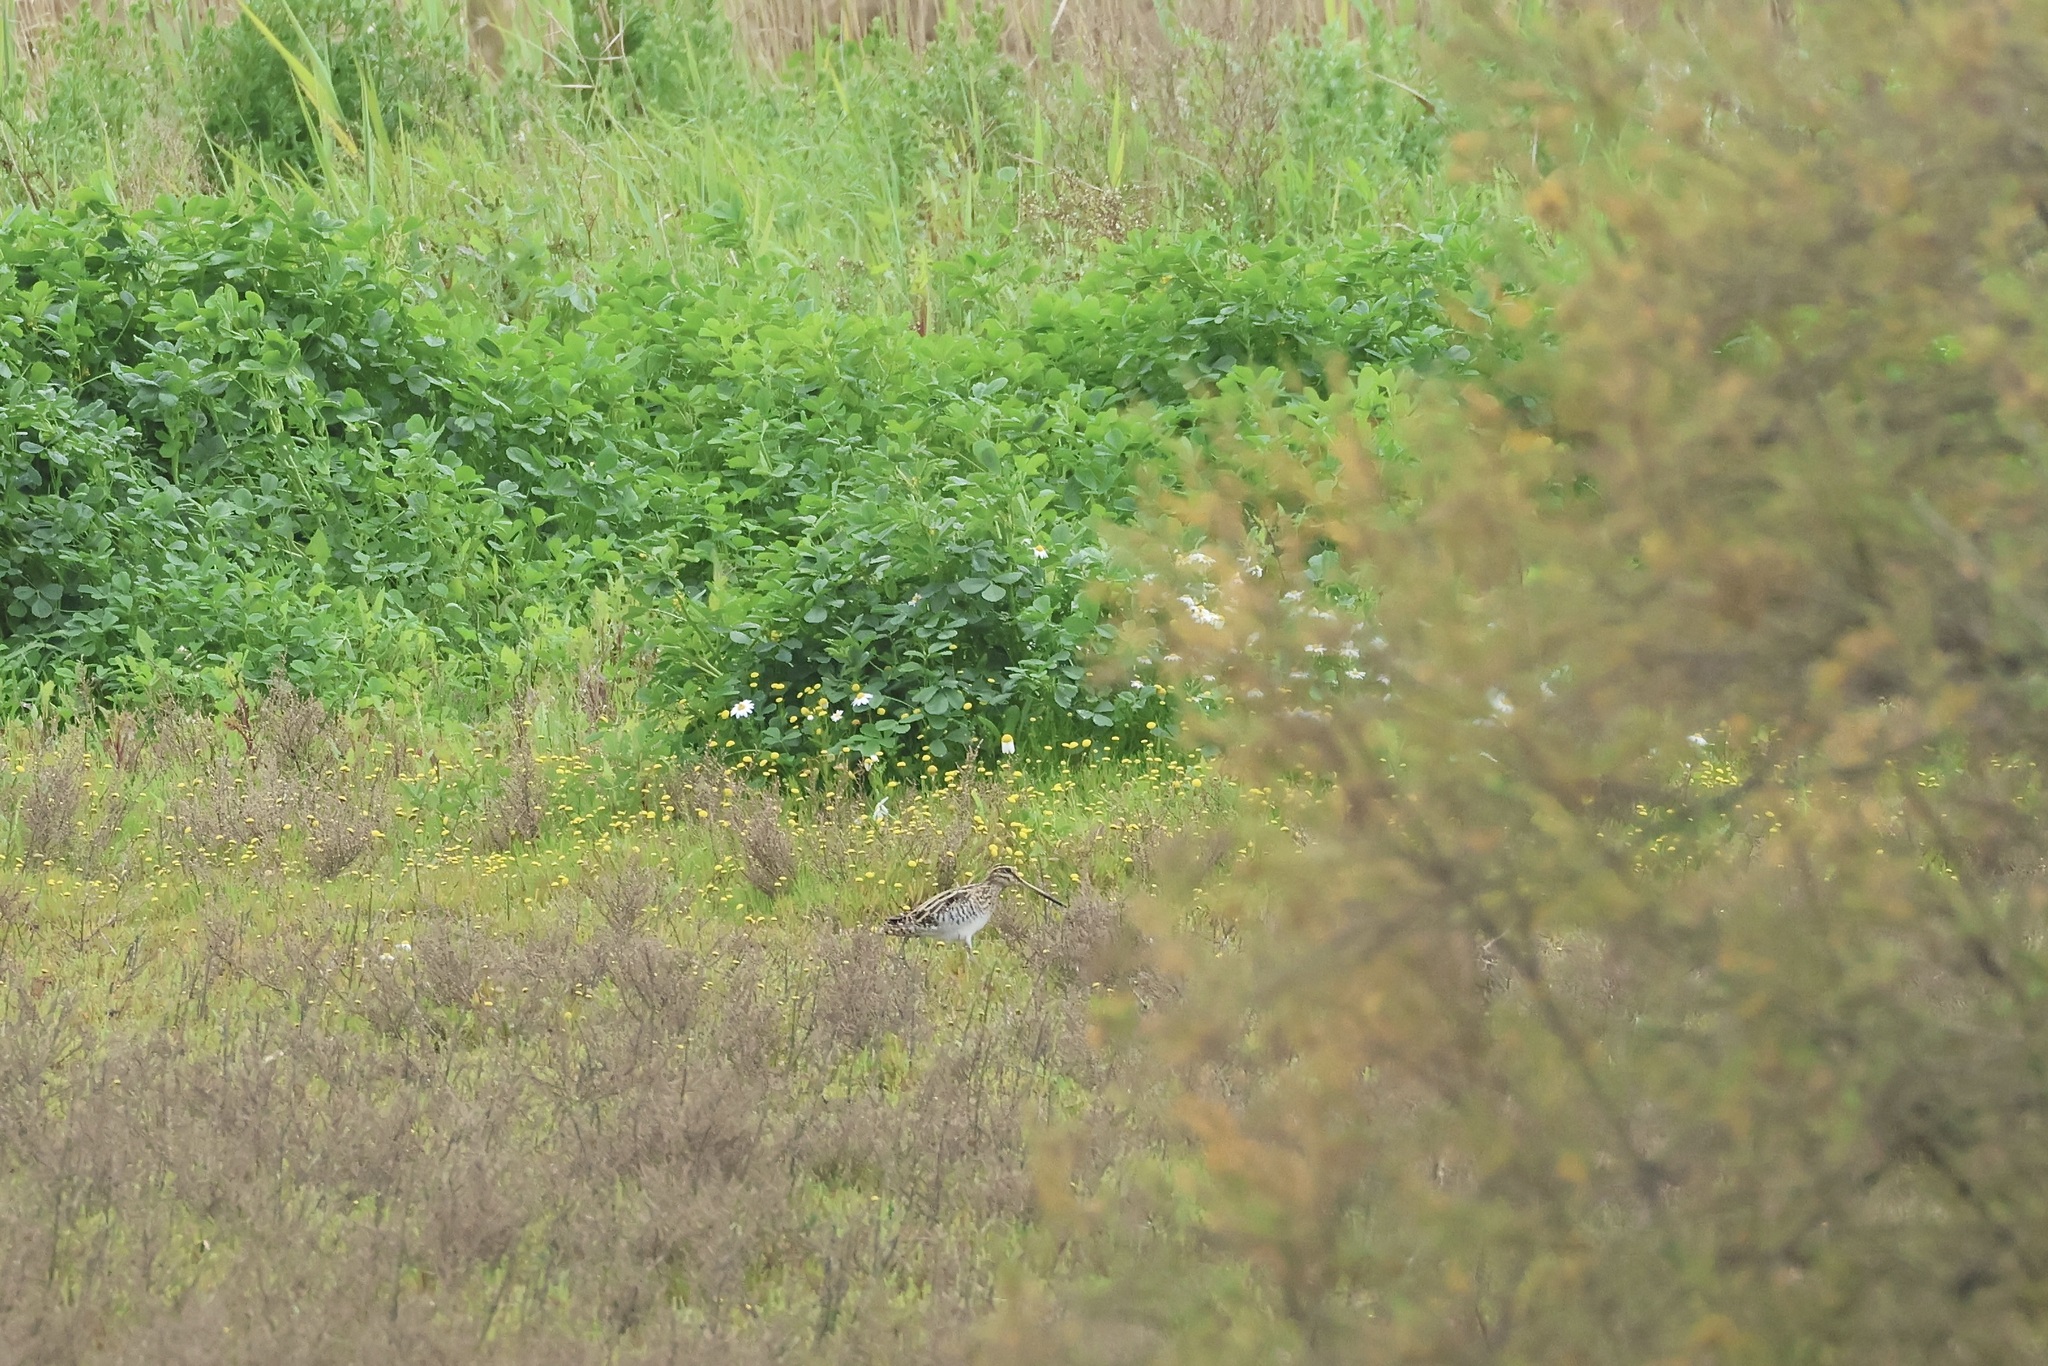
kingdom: Animalia
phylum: Chordata
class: Aves
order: Charadriiformes
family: Scolopacidae
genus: Gallinago
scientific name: Gallinago gallinago
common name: Common snipe
